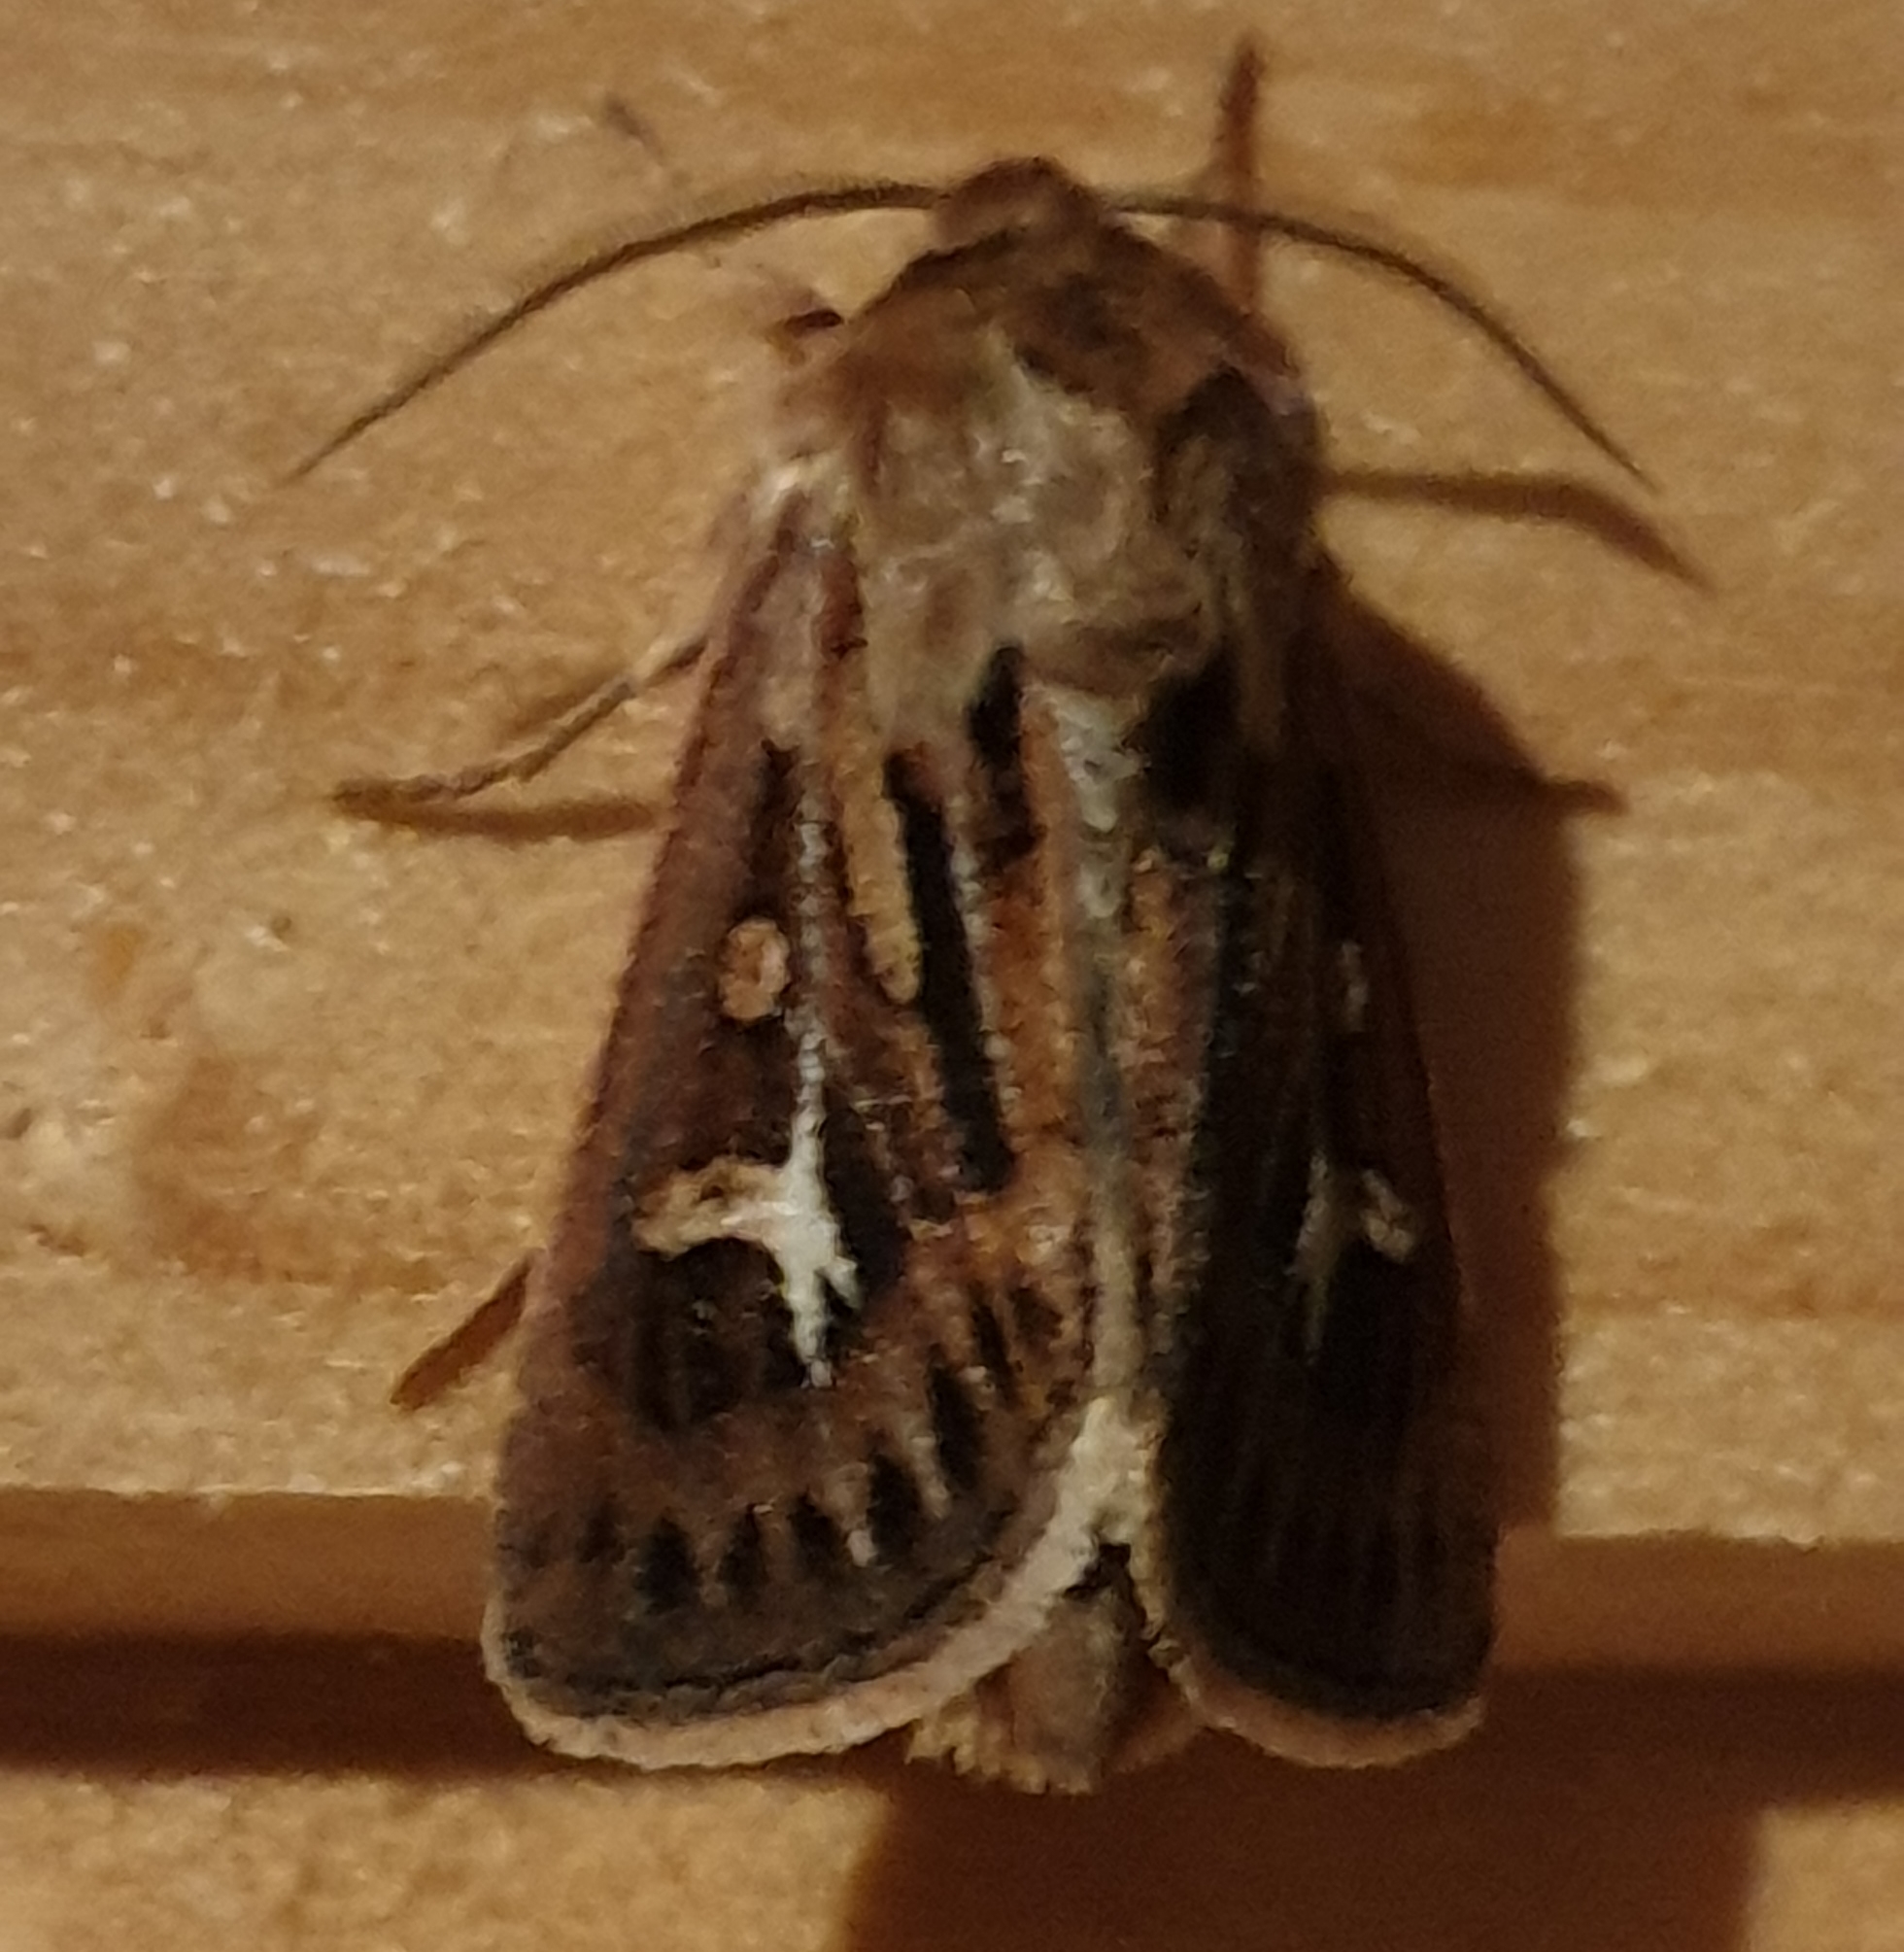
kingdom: Animalia
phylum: Arthropoda
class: Insecta
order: Lepidoptera
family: Noctuidae
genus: Cerapteryx
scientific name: Cerapteryx graminis
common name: Antler moth
